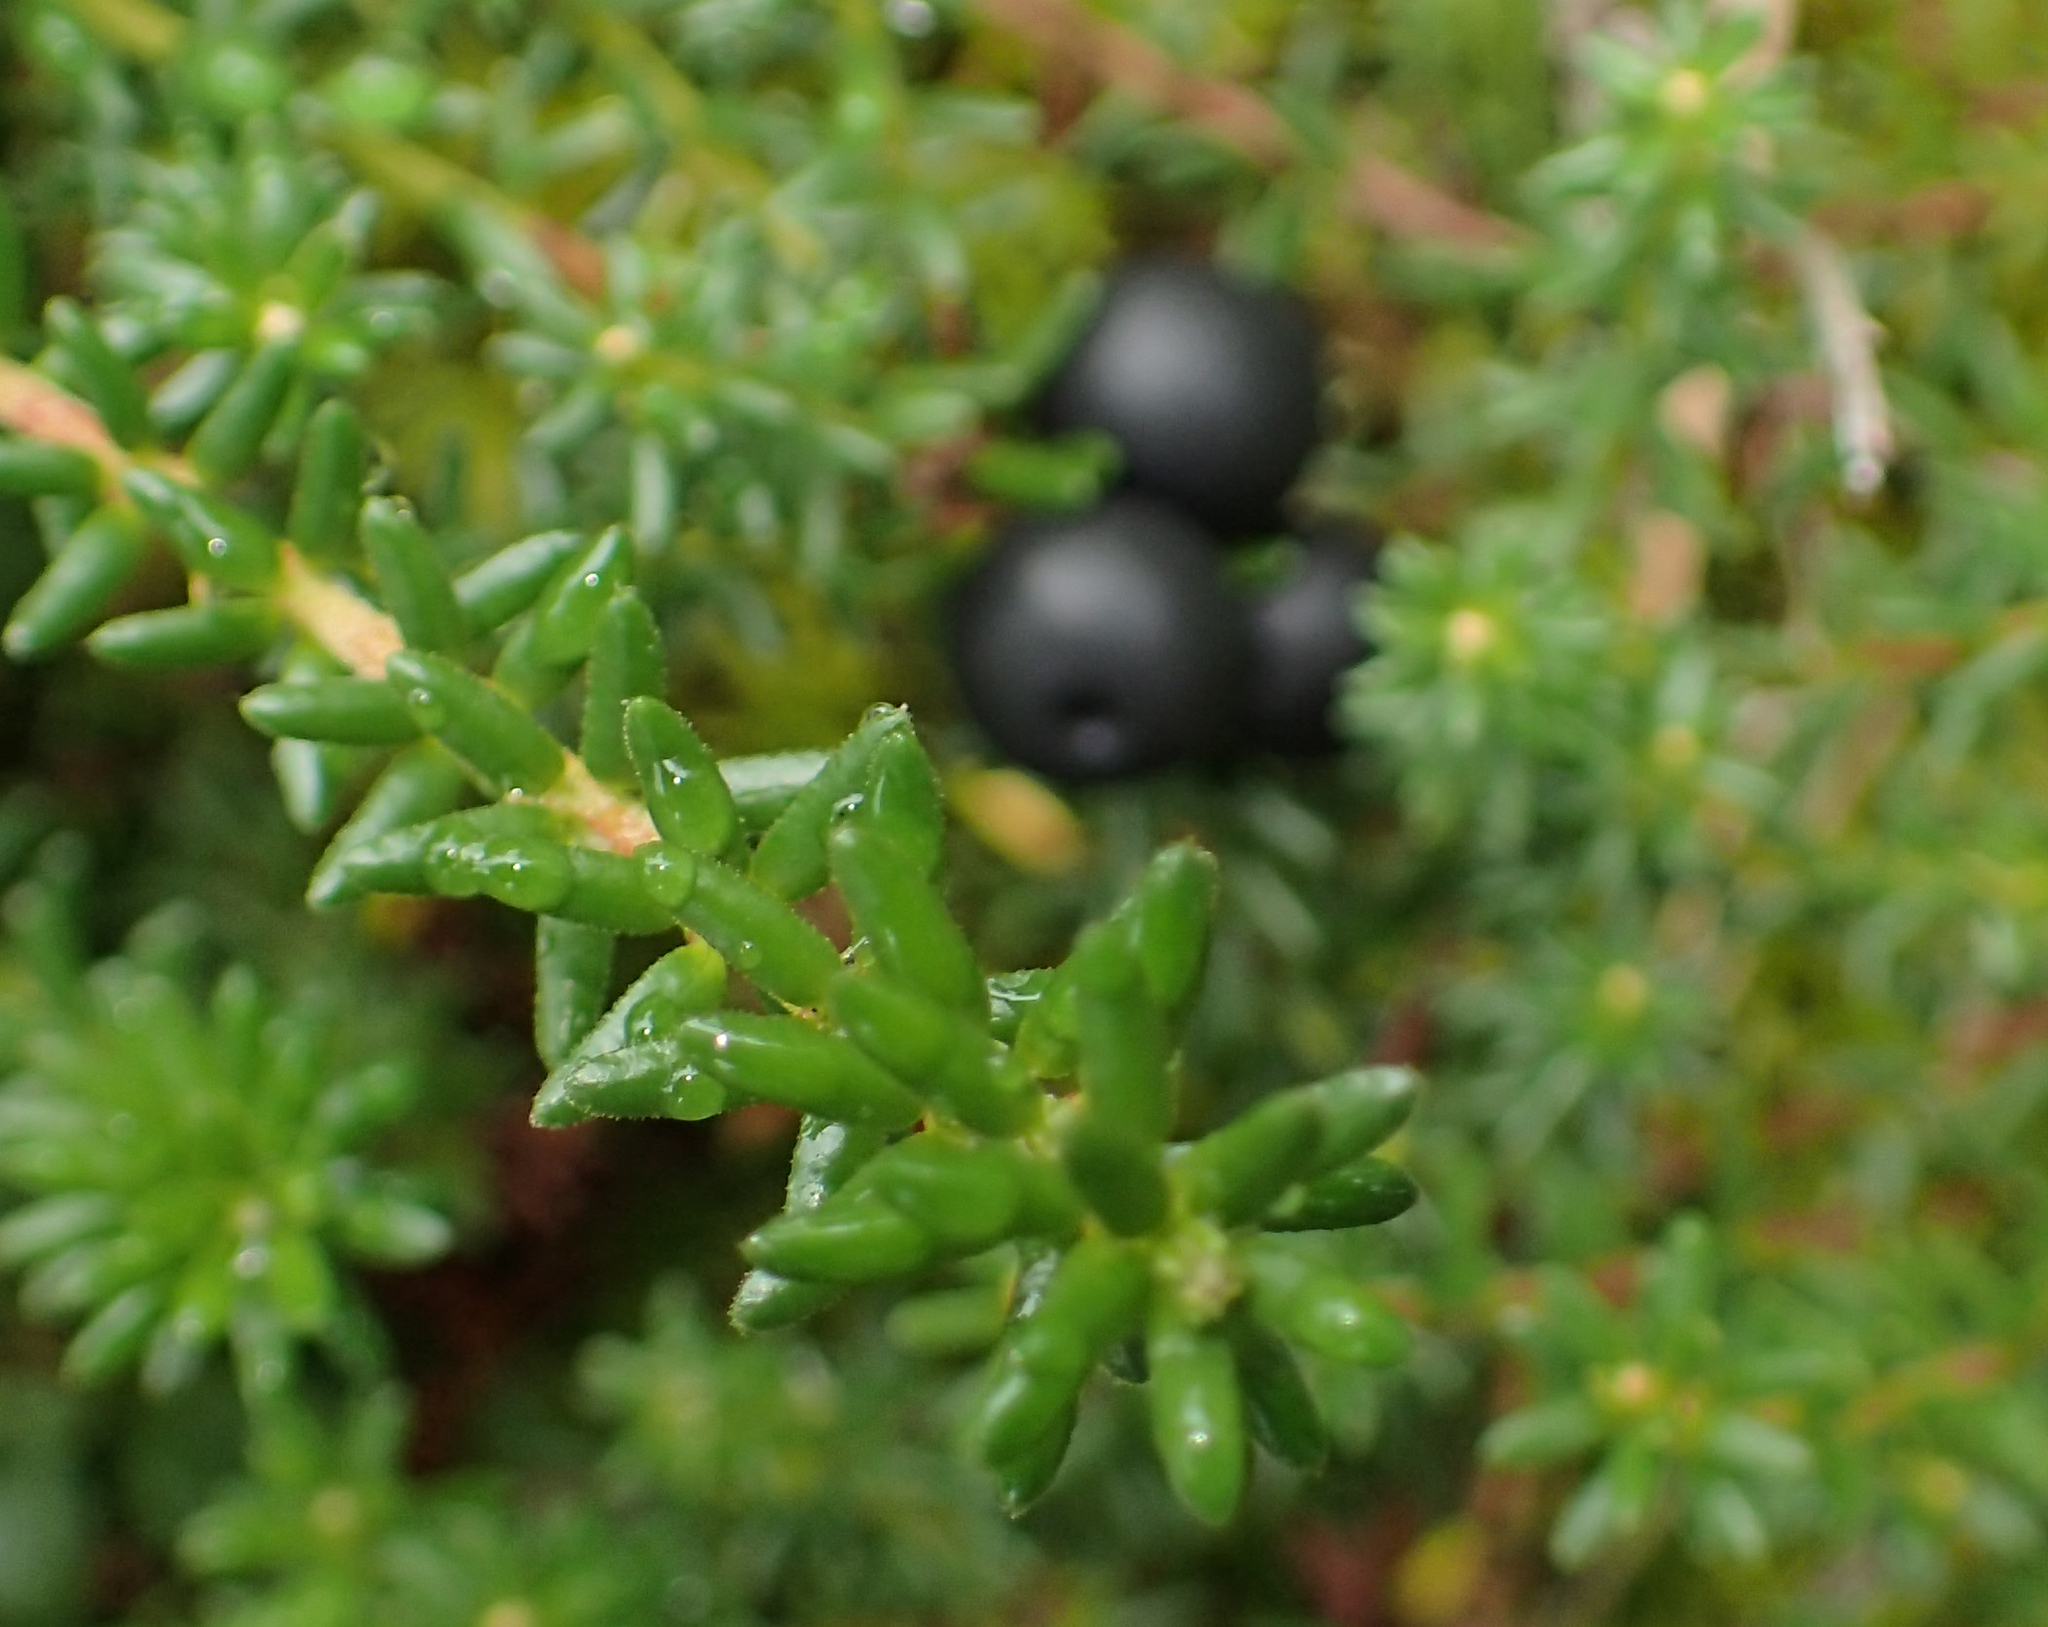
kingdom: Plantae
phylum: Tracheophyta
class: Magnoliopsida
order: Ericales
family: Ericaceae
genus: Empetrum
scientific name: Empetrum nigrum
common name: Black crowberry
